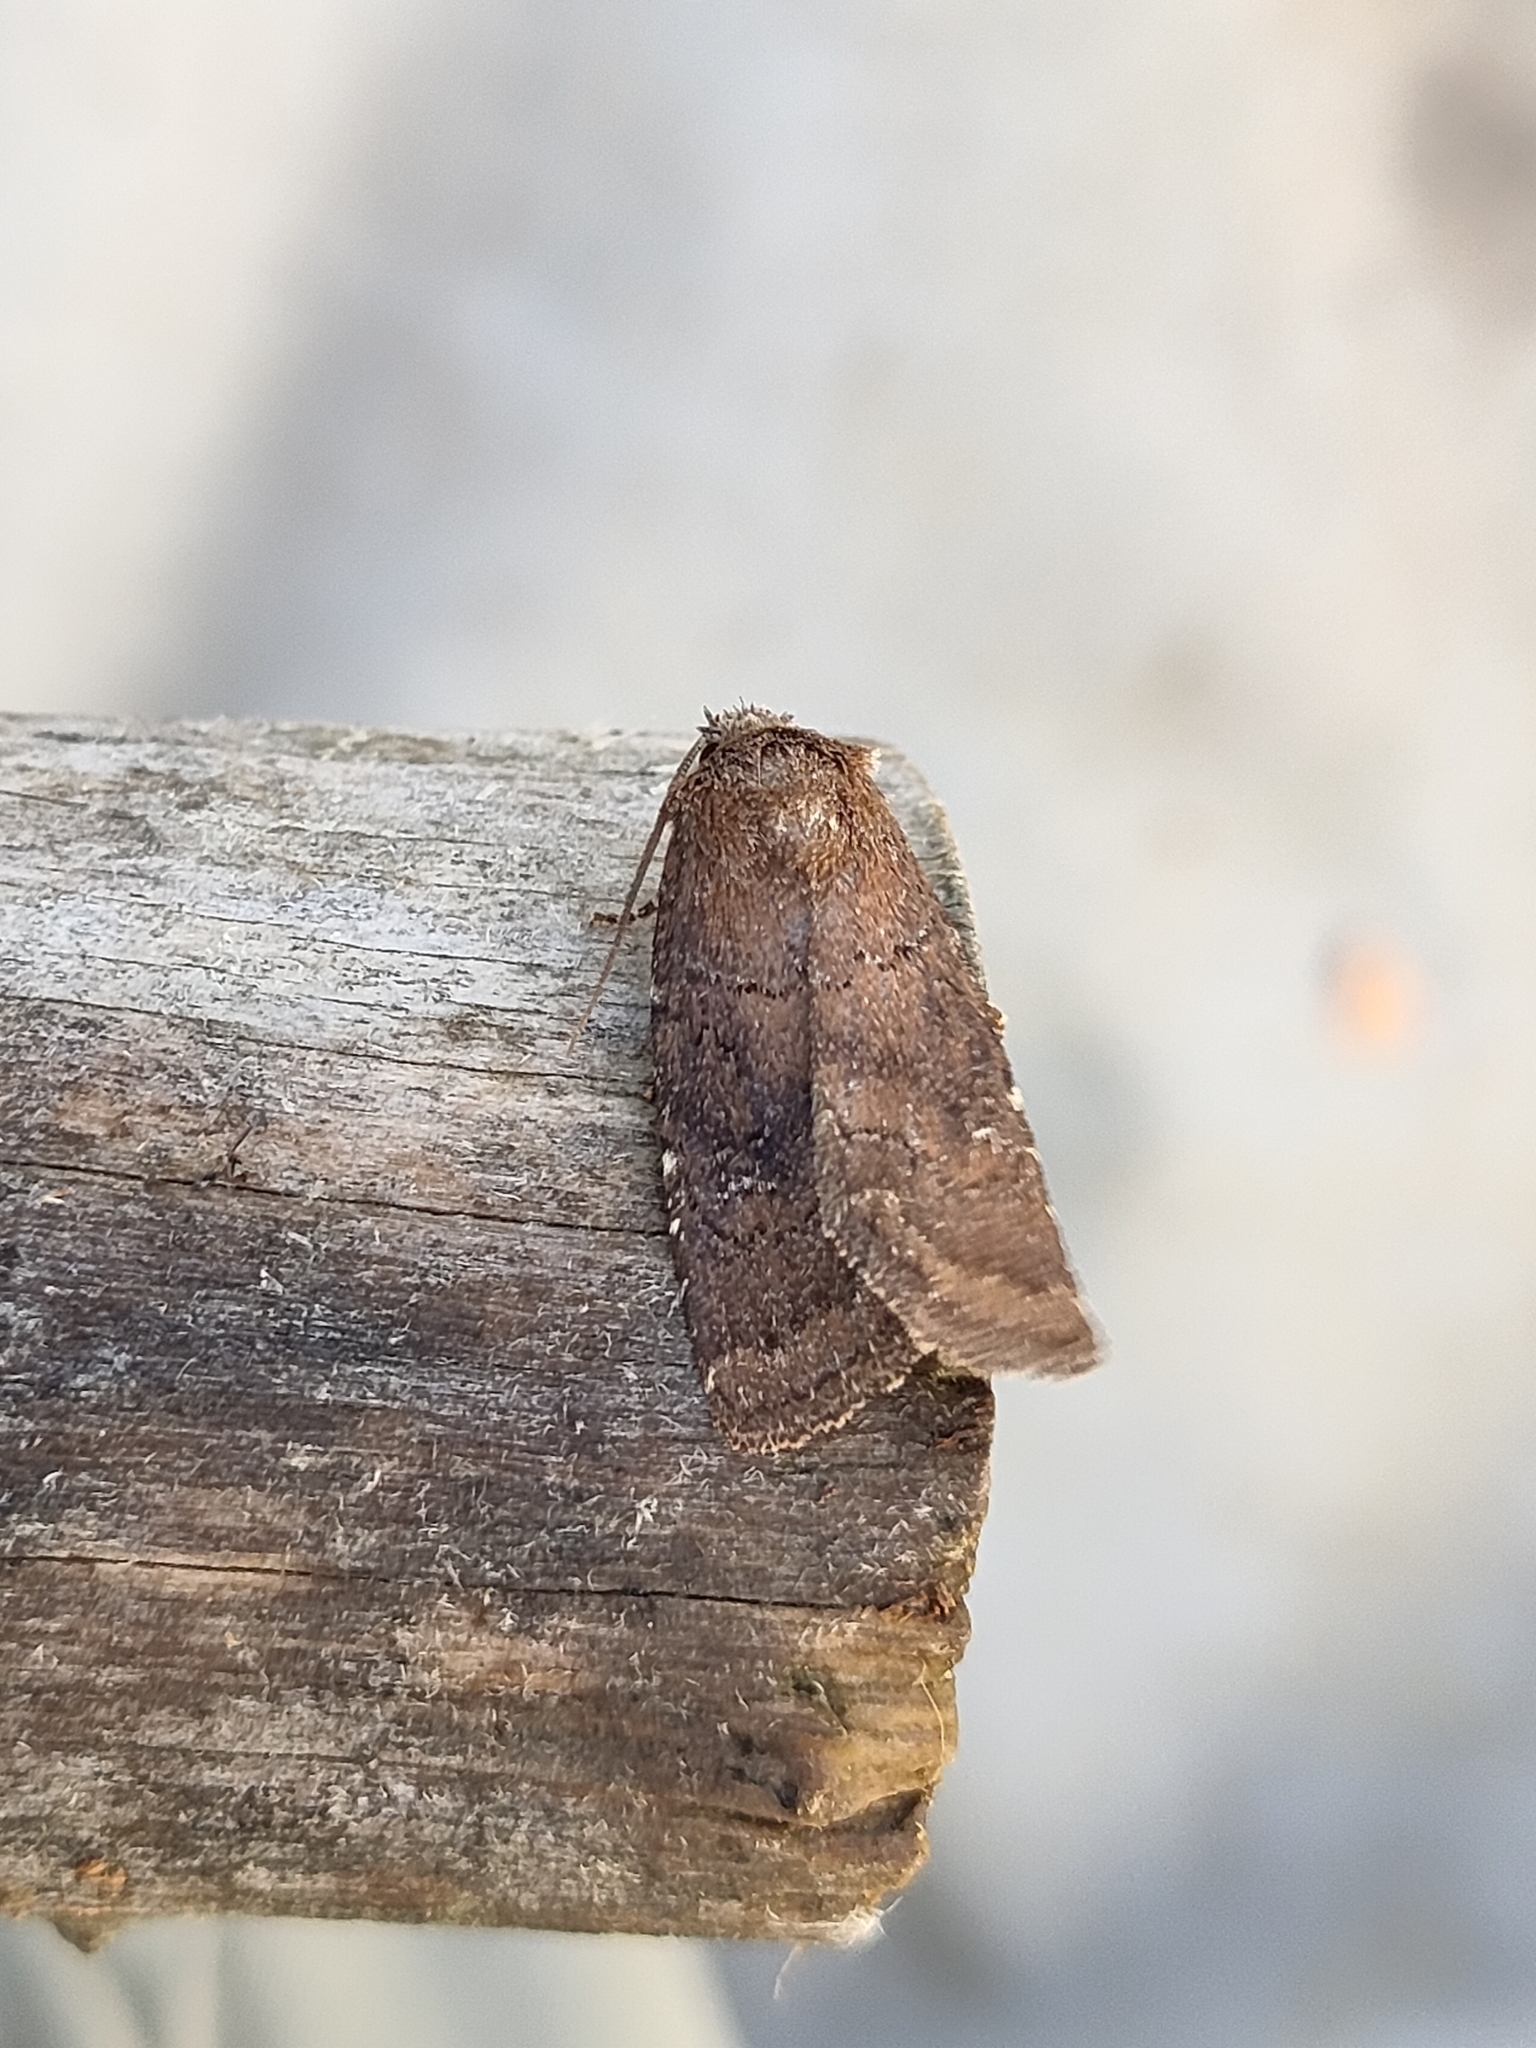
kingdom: Animalia
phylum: Arthropoda
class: Insecta
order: Lepidoptera
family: Noctuidae
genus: Charanyca
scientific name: Charanyca ferruginea
